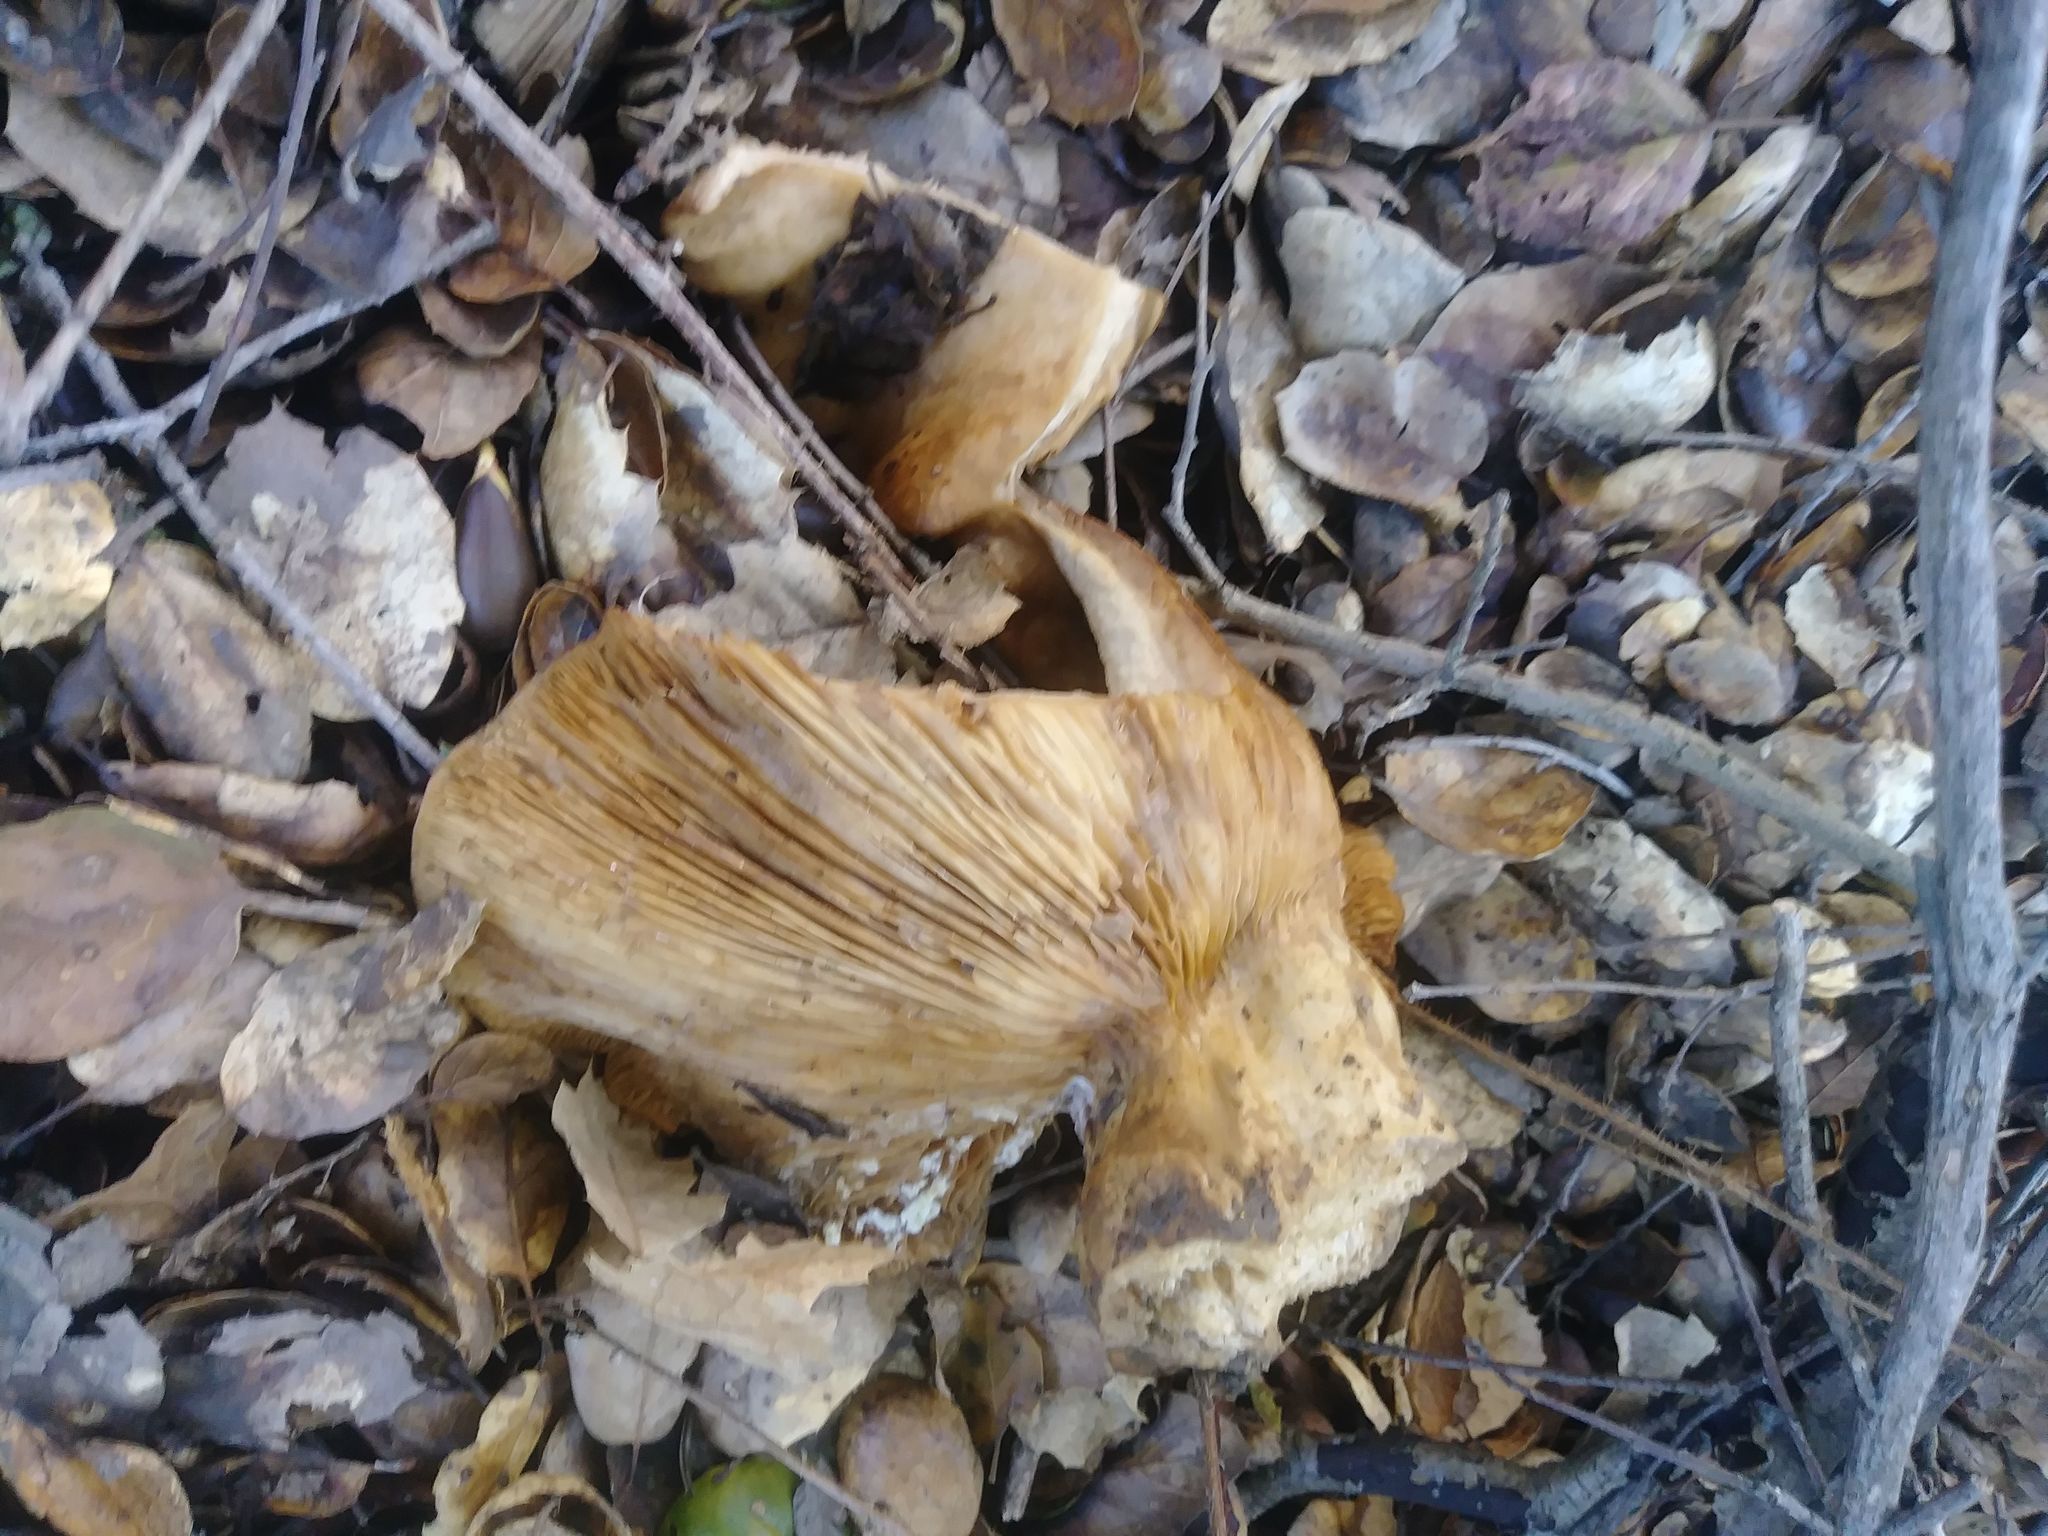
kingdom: Fungi
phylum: Basidiomycota
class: Agaricomycetes
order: Russulales
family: Russulaceae
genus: Lactarius
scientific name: Lactarius argillaceifolius
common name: Clay-gilled milkcap
